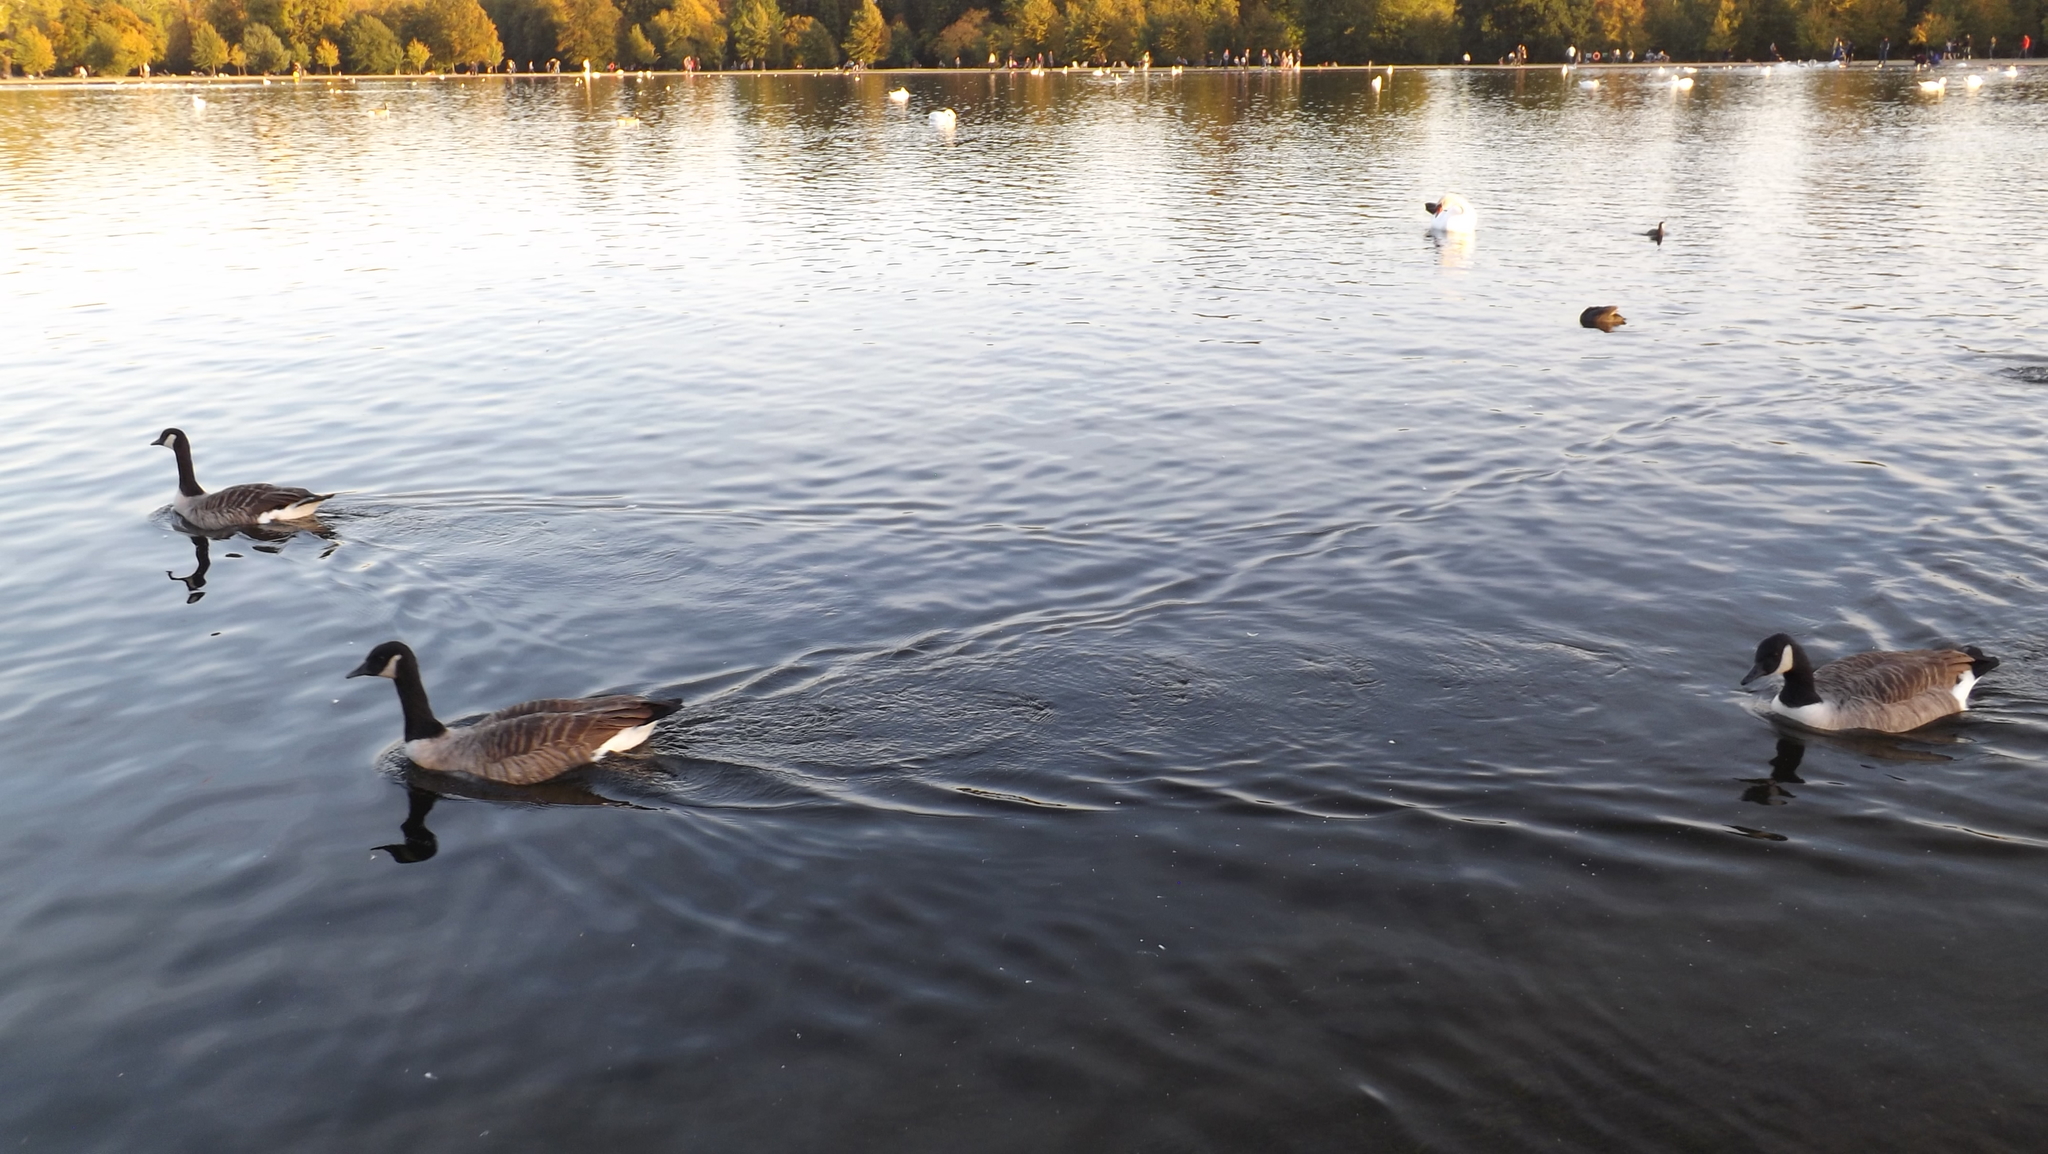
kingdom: Animalia
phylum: Chordata
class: Aves
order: Anseriformes
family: Anatidae
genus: Branta
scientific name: Branta canadensis
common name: Canada goose
